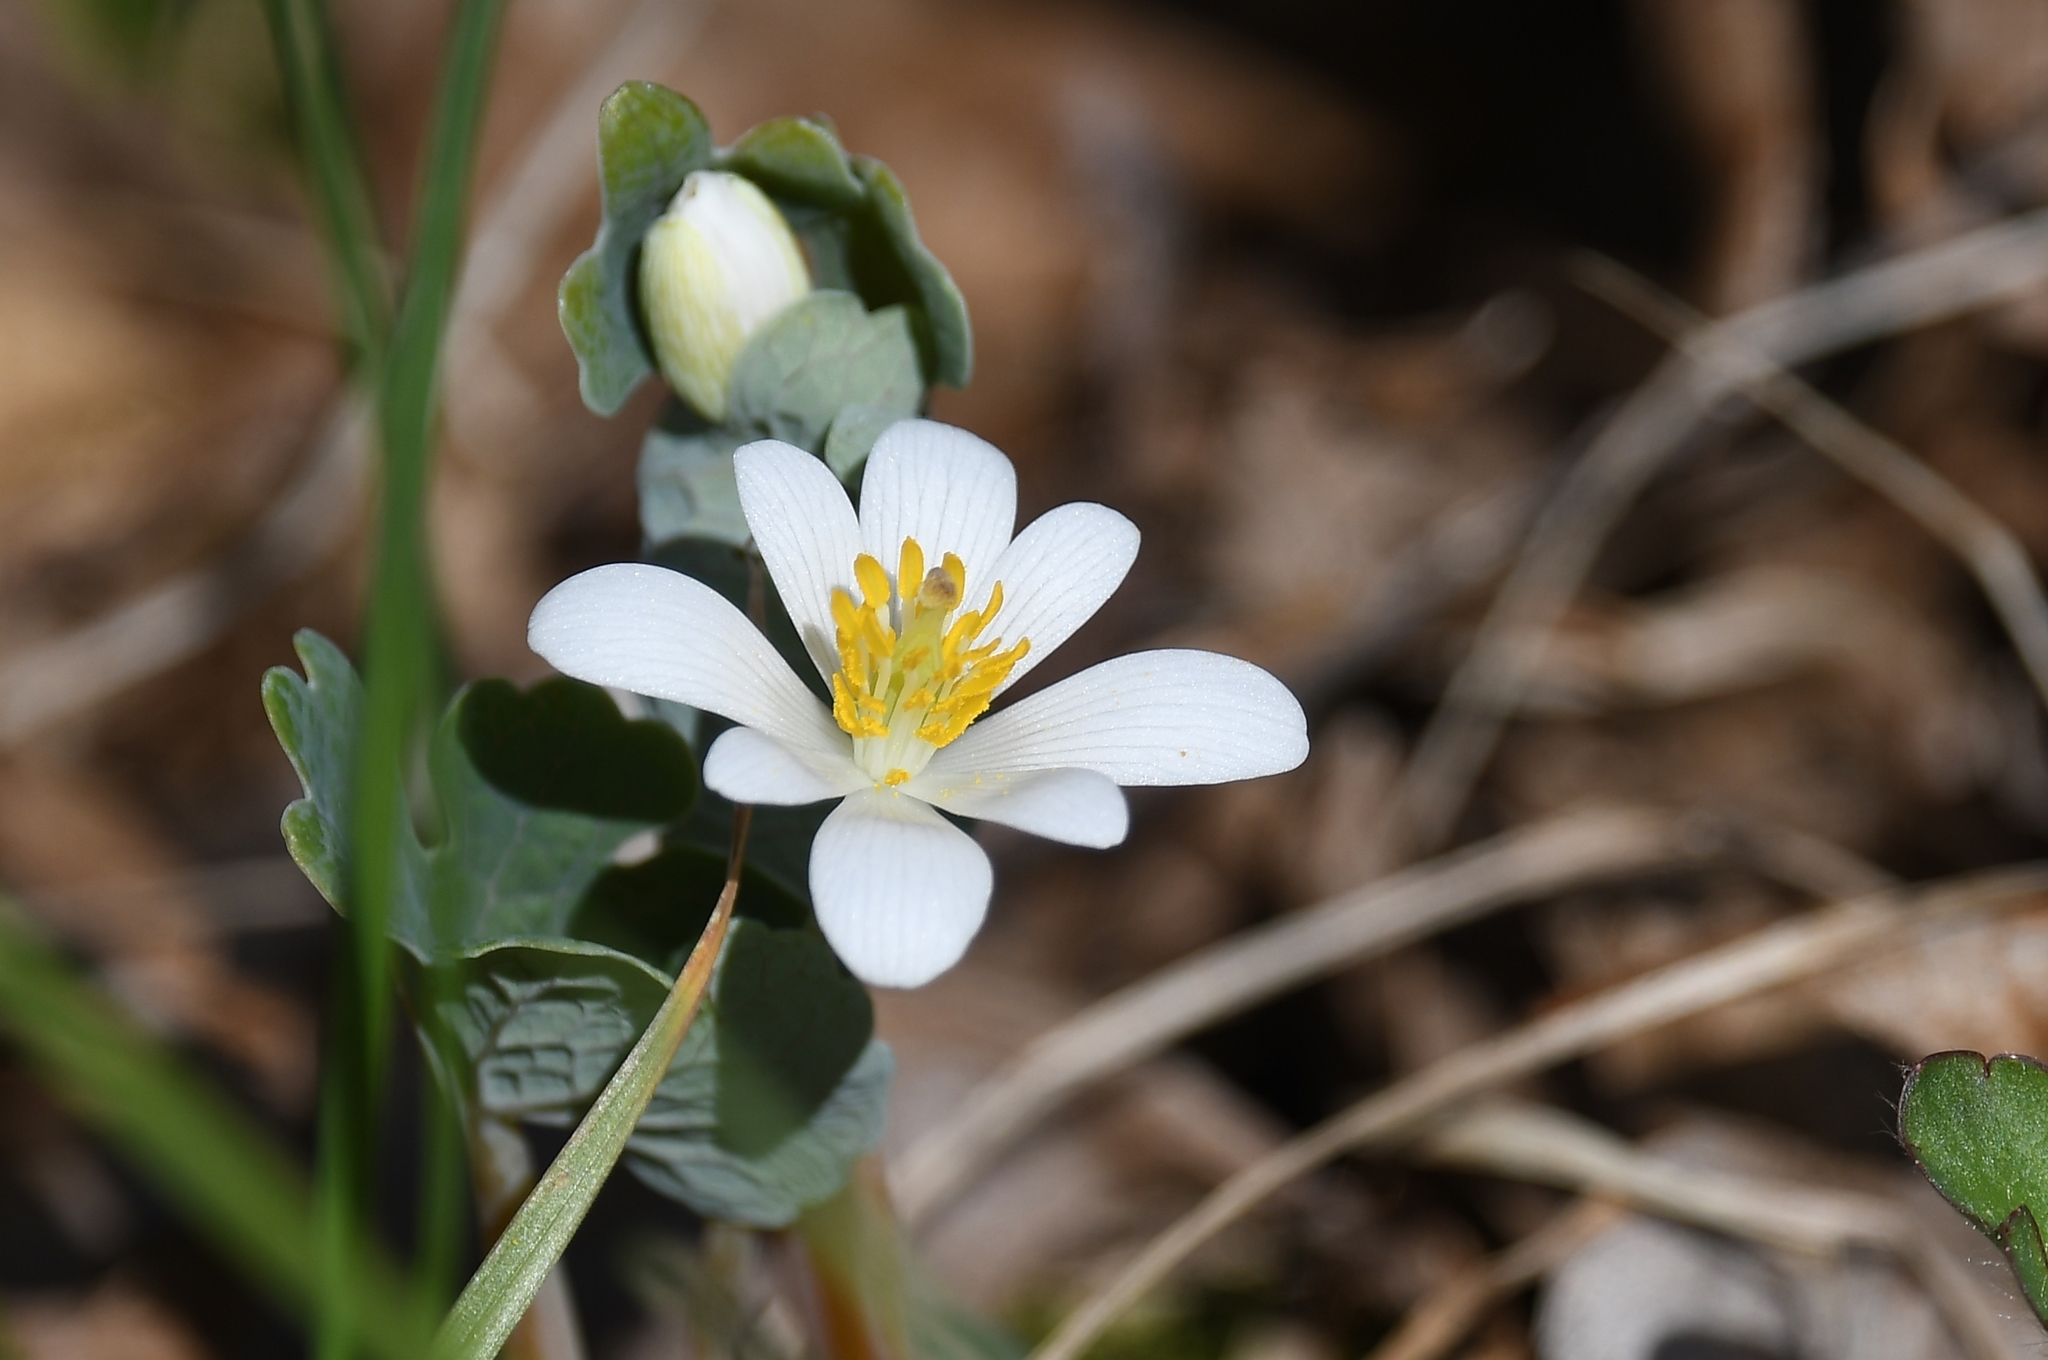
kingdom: Plantae
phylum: Tracheophyta
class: Magnoliopsida
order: Ranunculales
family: Papaveraceae
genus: Sanguinaria
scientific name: Sanguinaria canadensis
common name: Bloodroot
